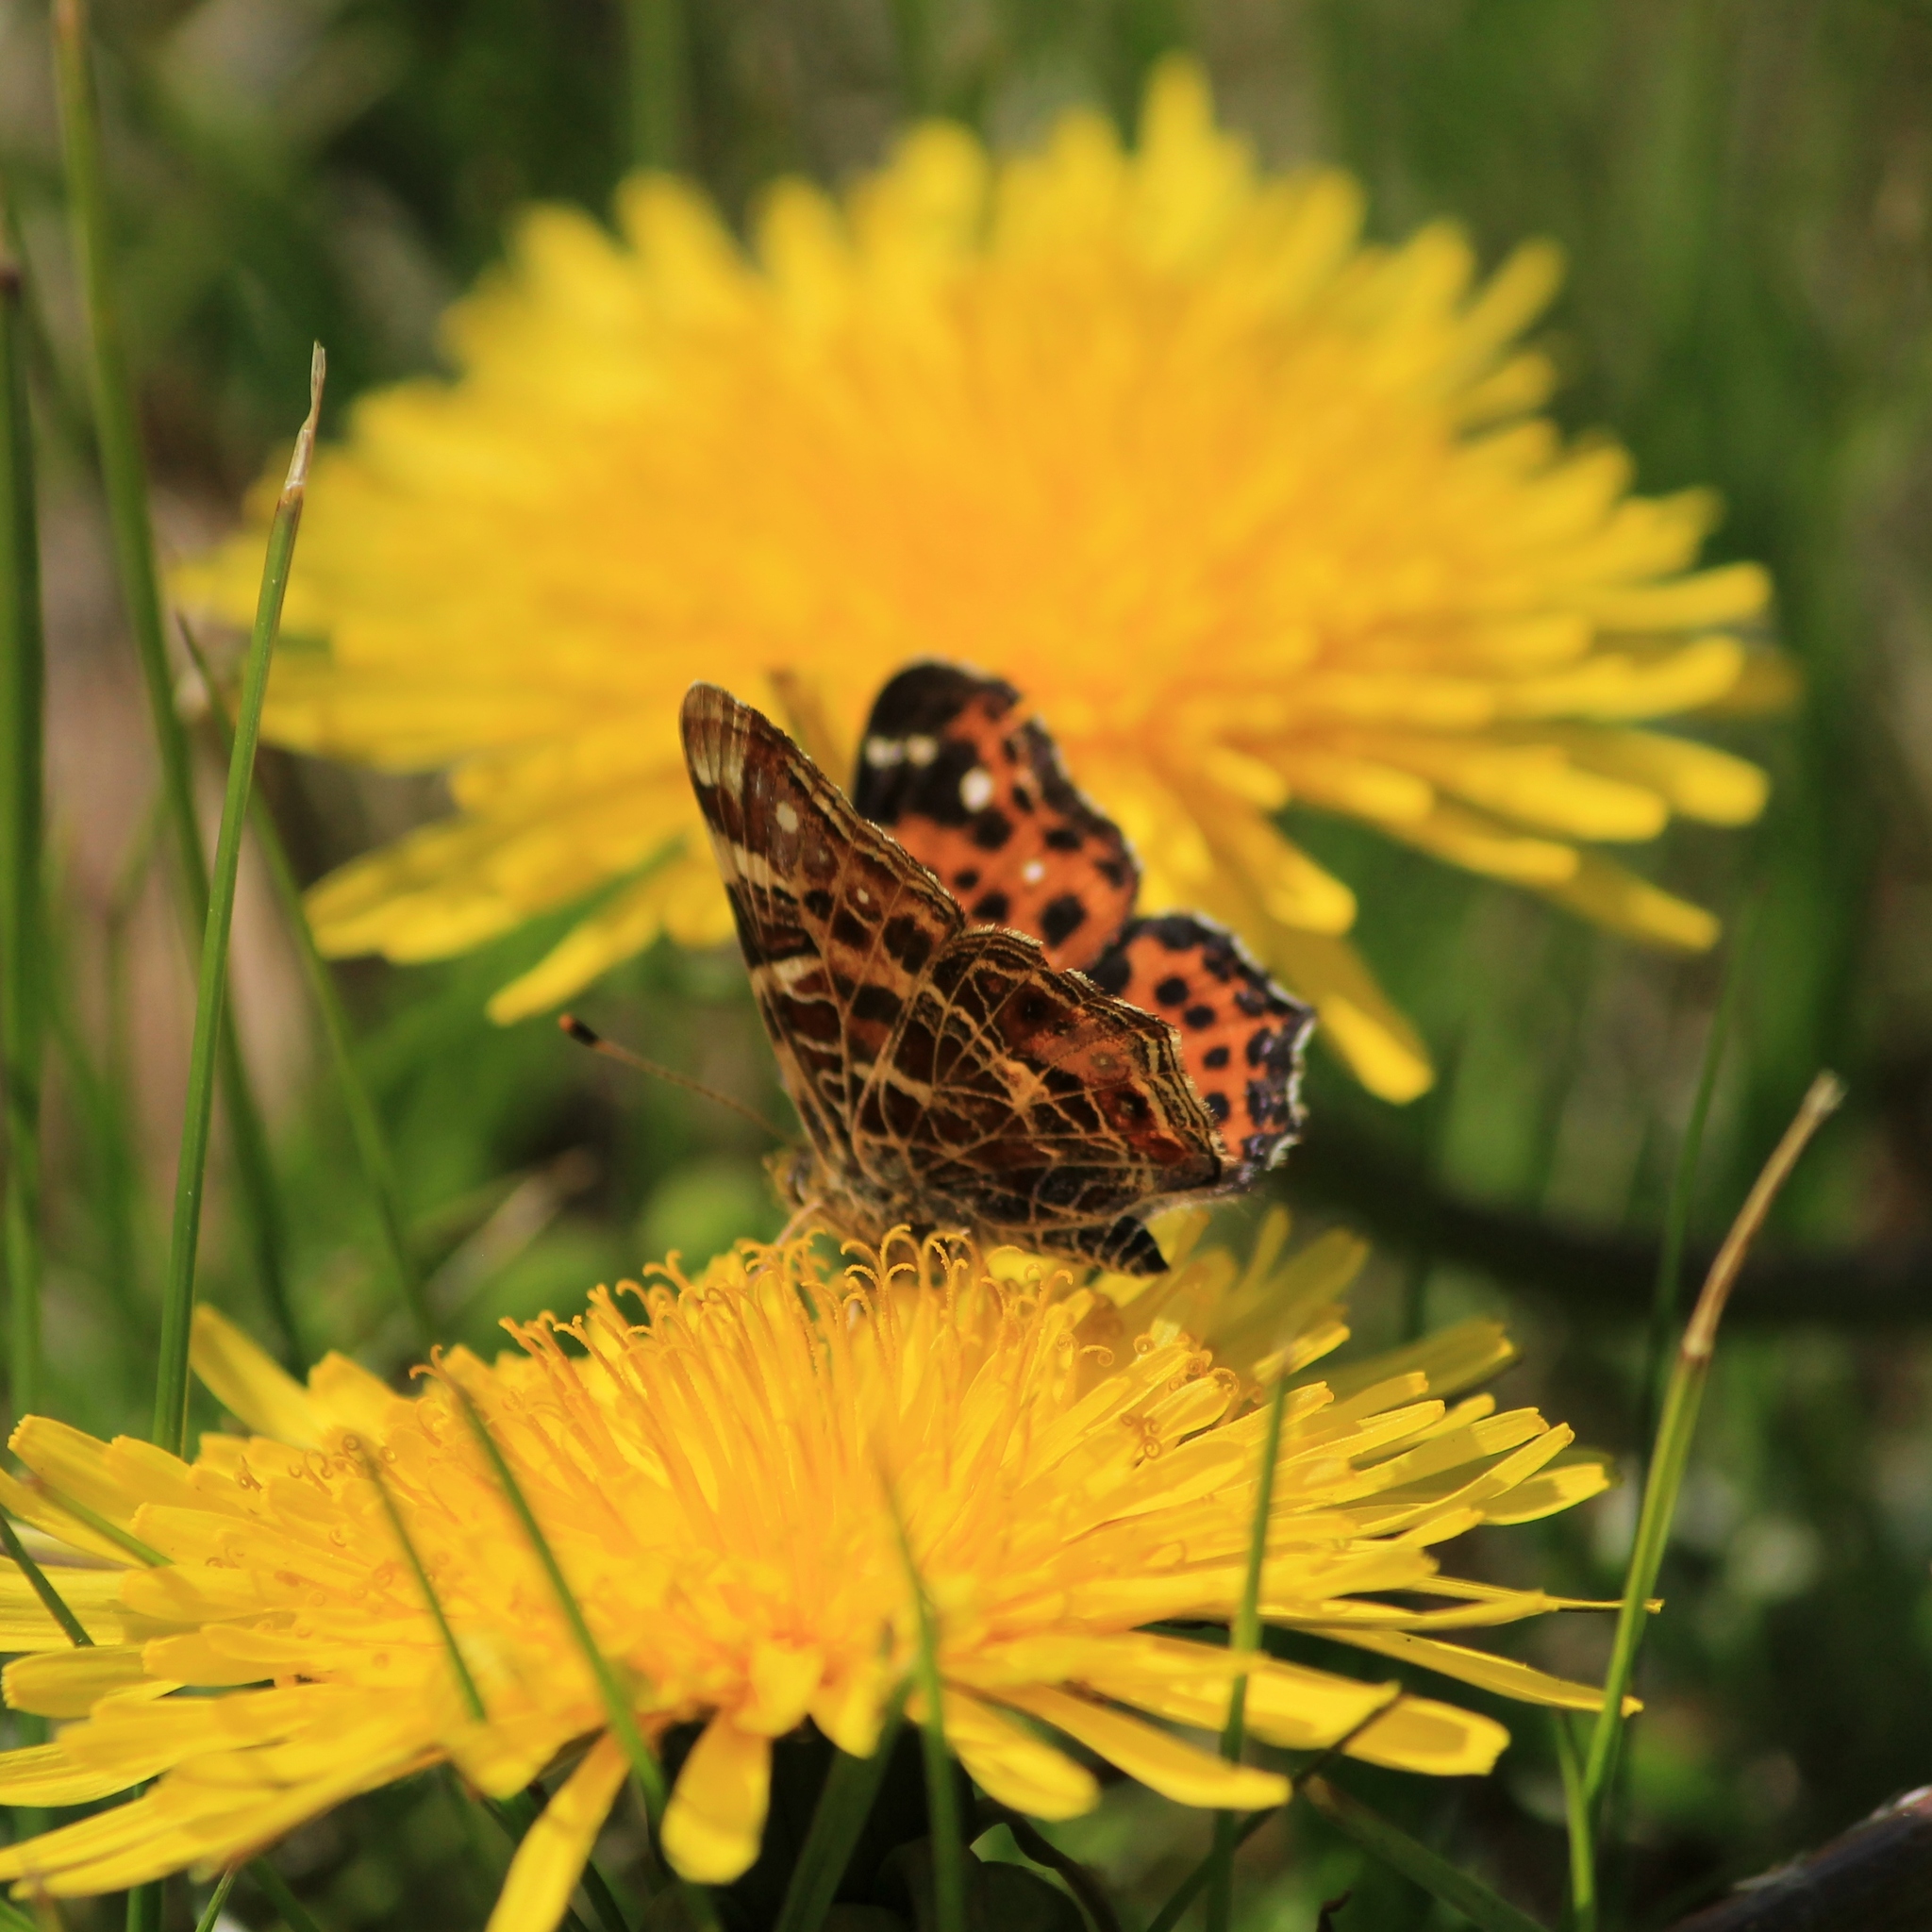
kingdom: Animalia
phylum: Arthropoda
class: Insecta
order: Lepidoptera
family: Nymphalidae
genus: Araschnia
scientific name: Araschnia levana
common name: Map butterfly
